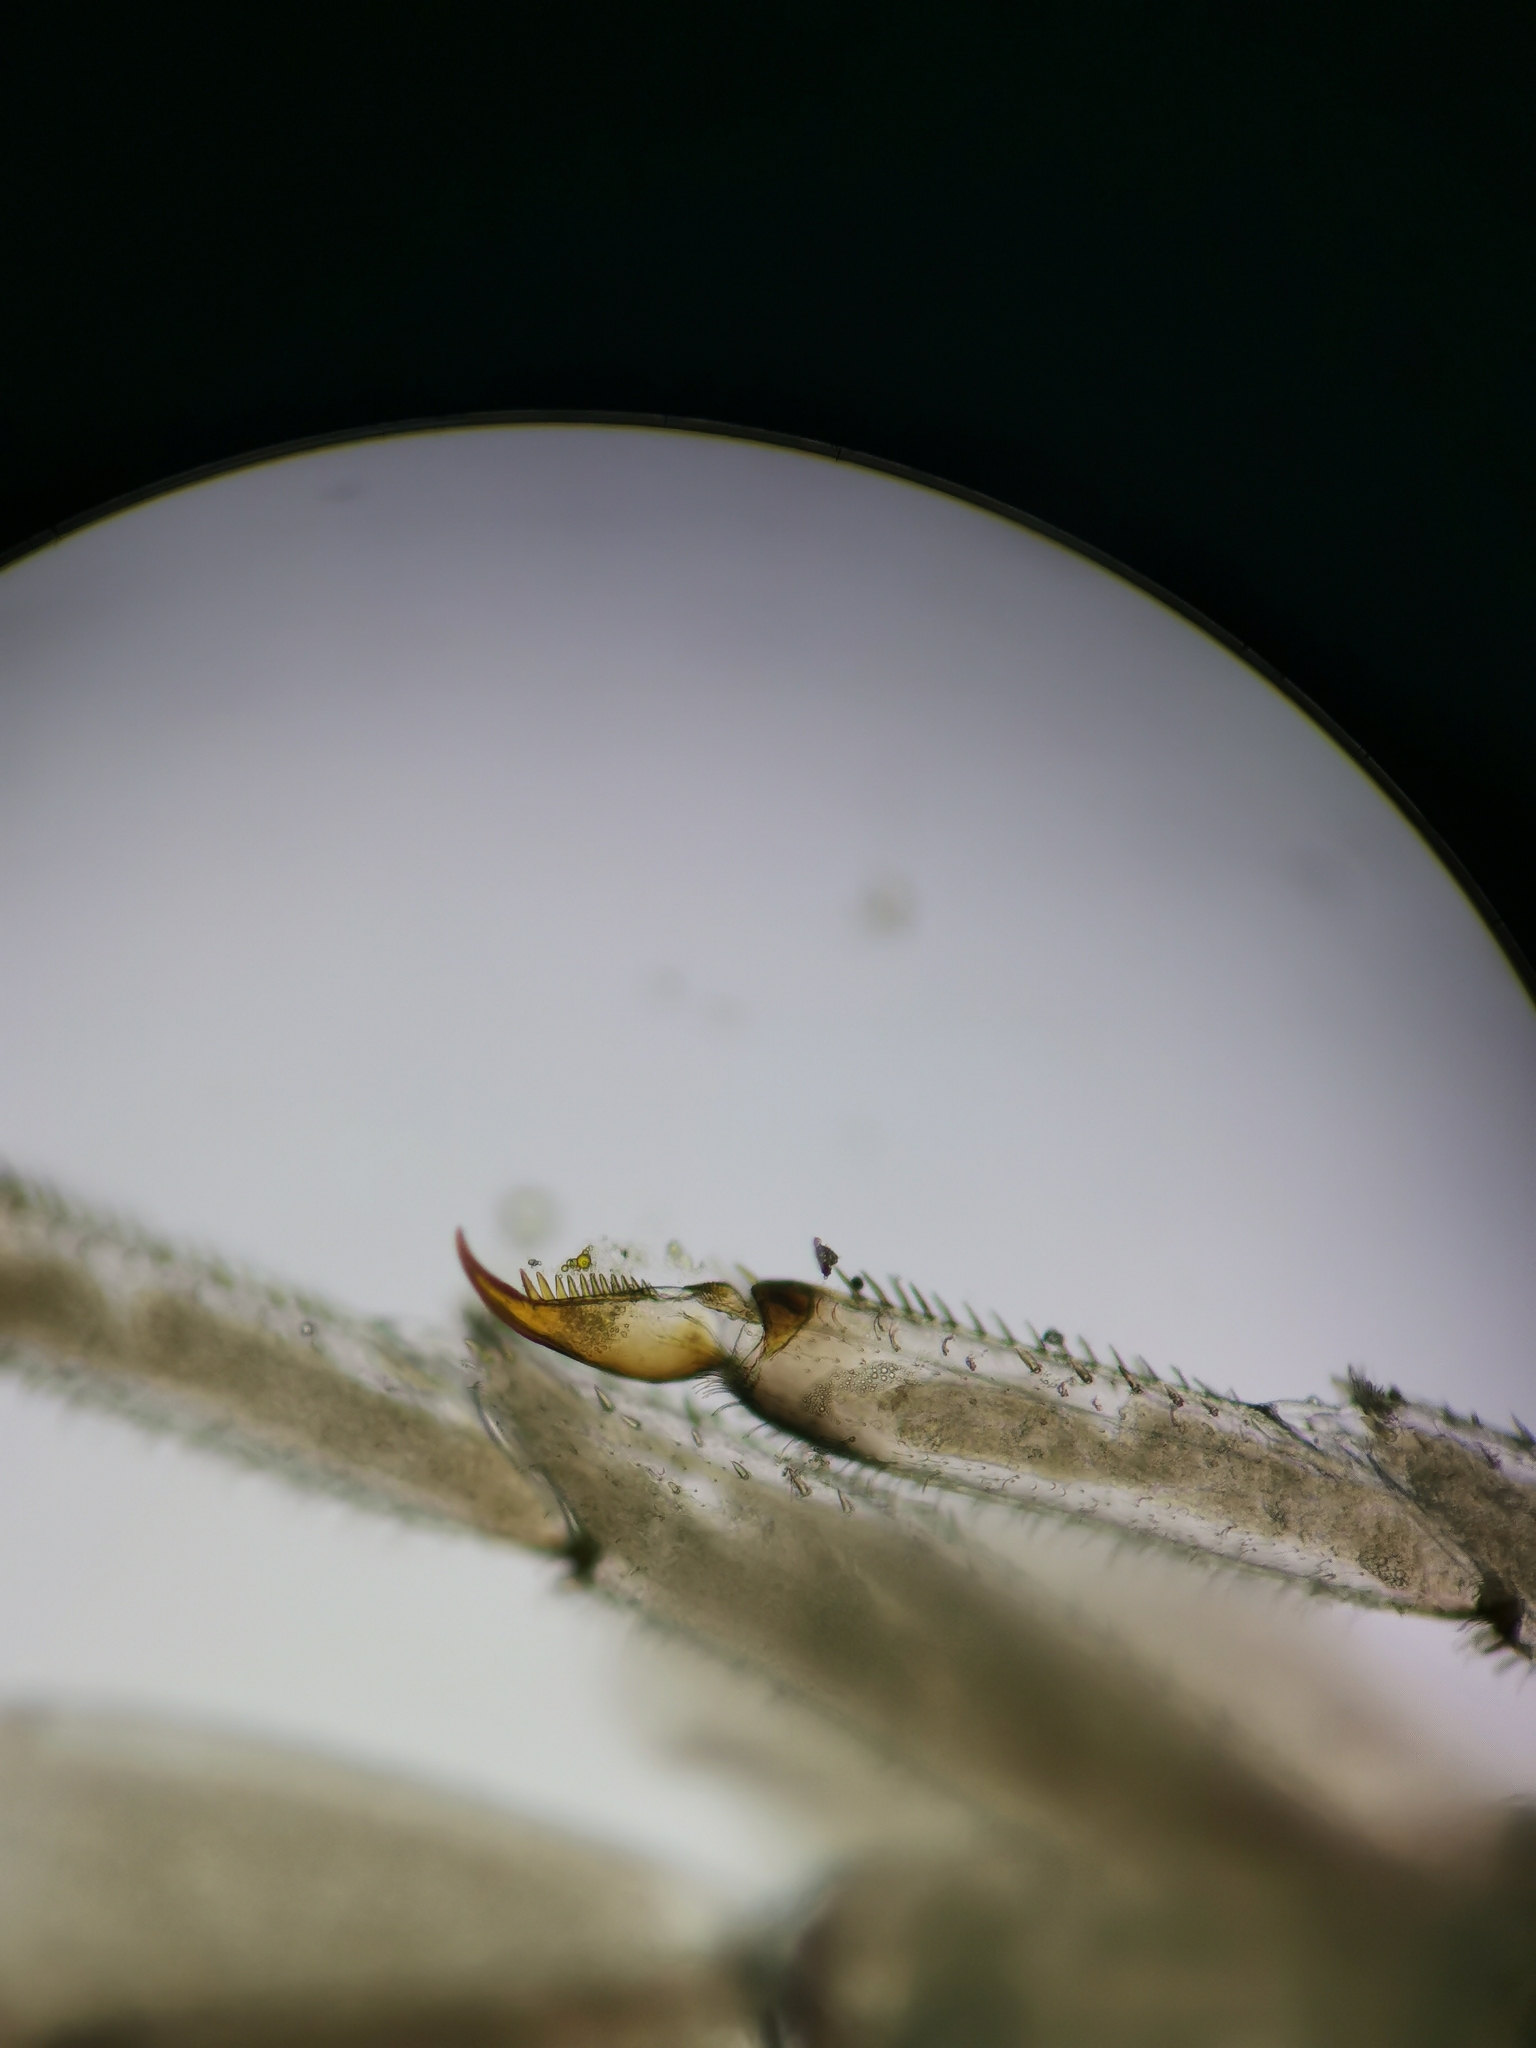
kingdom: Animalia
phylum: Arthropoda
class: Insecta
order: Ephemeroptera
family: Baetidae
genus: Baetis
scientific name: Baetis rhodani
